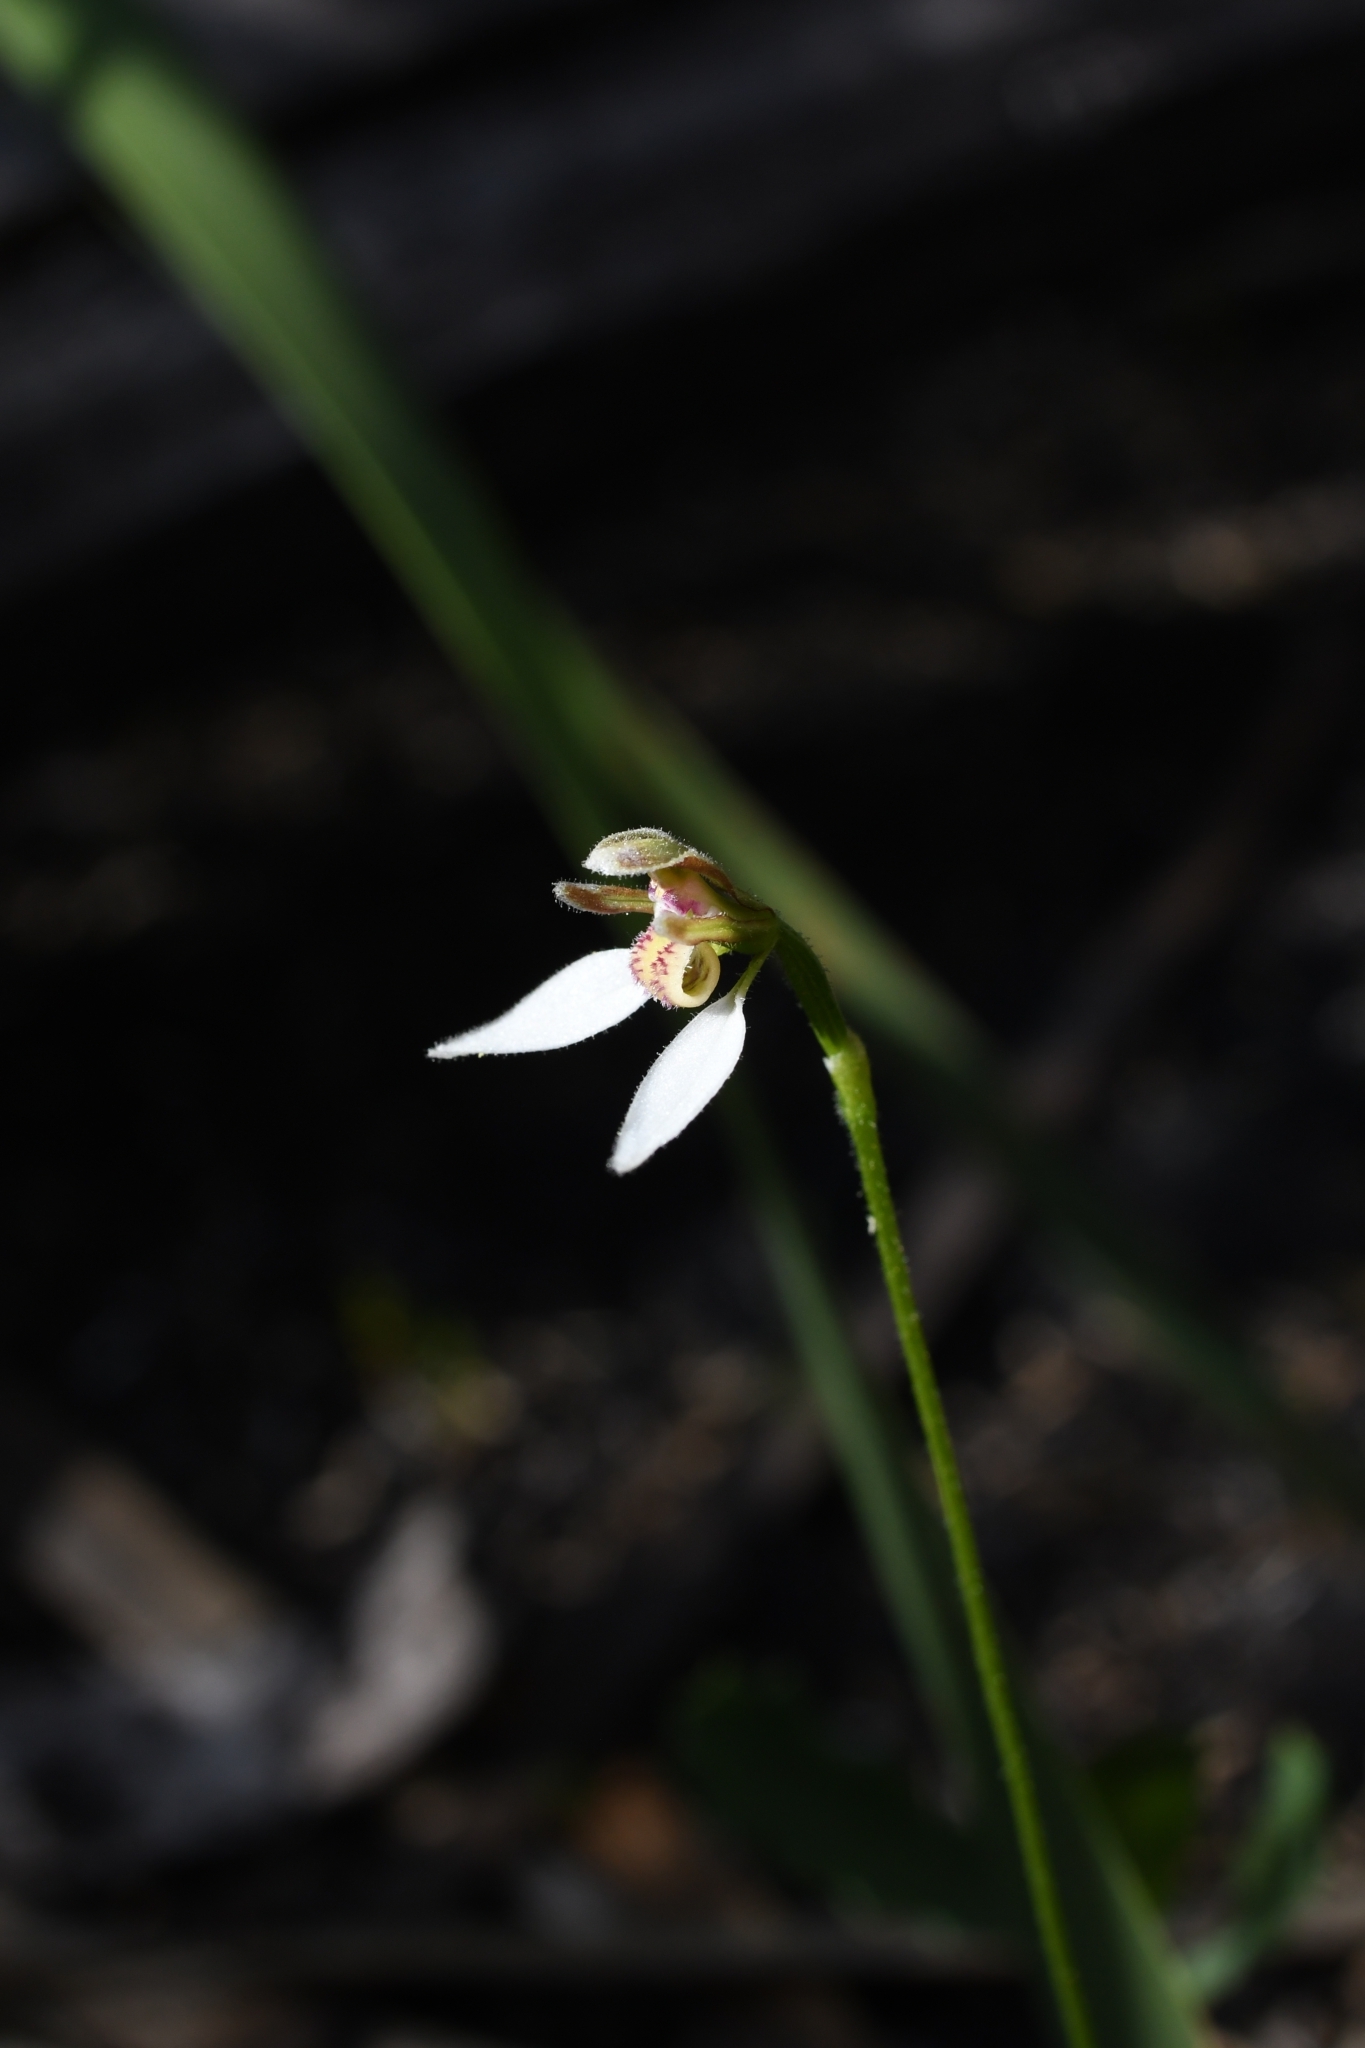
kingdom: Plantae
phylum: Tracheophyta
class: Liliopsida
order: Asparagales
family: Orchidaceae
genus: Eriochilus
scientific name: Eriochilus dilatatus
